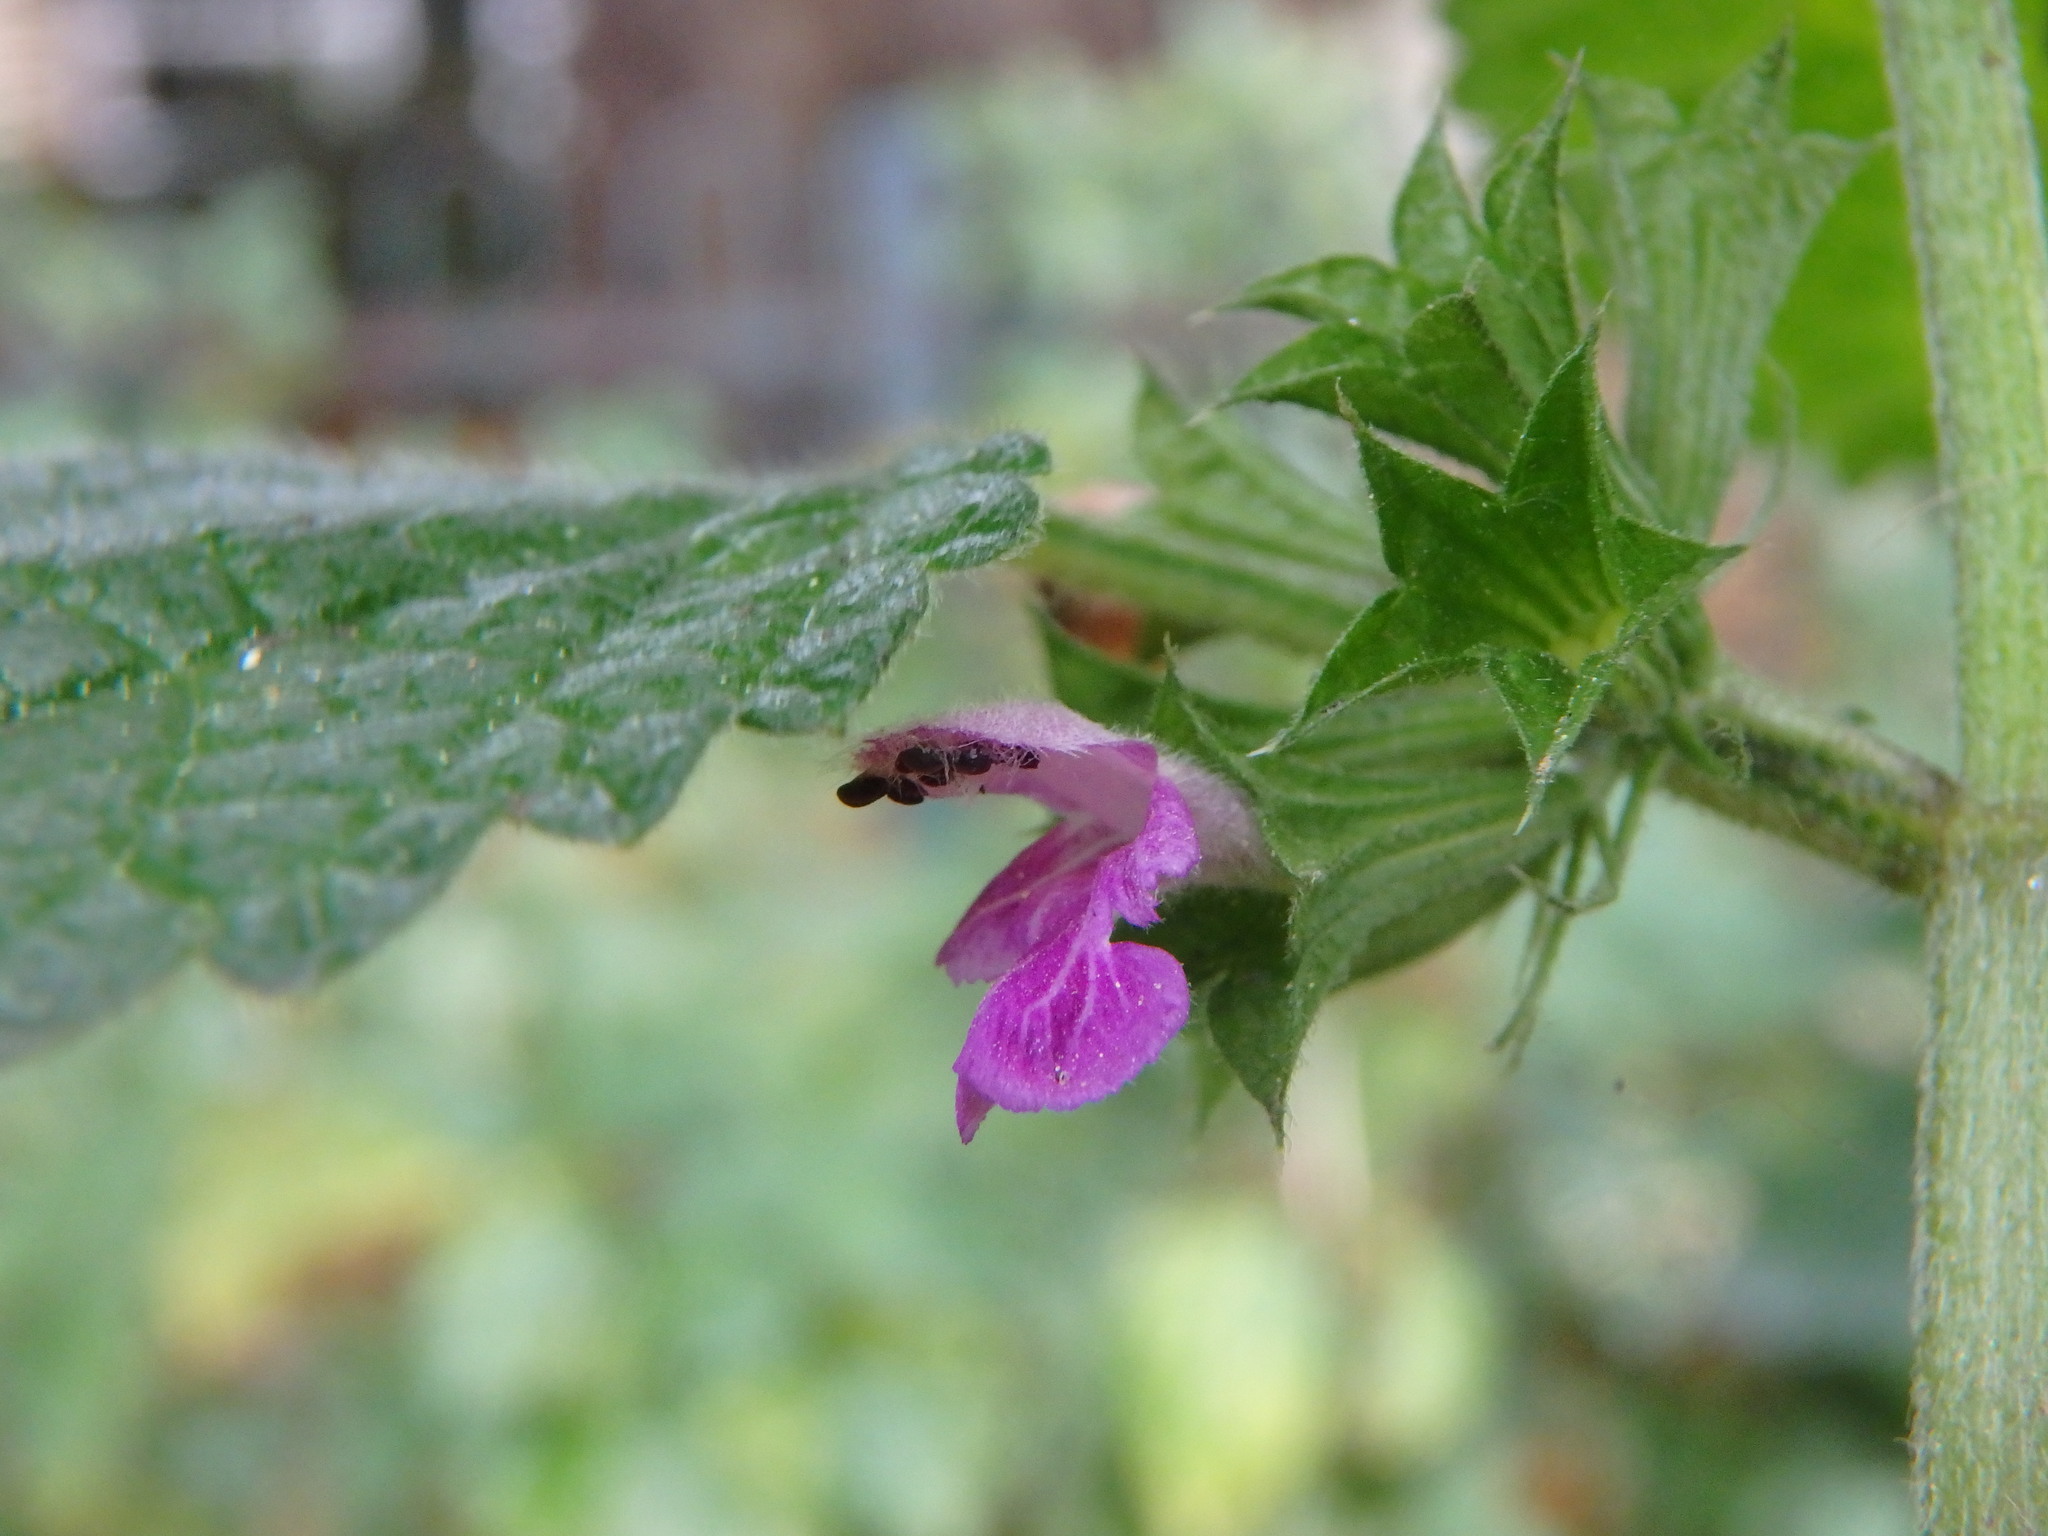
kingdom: Plantae
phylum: Tracheophyta
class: Magnoliopsida
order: Lamiales
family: Lamiaceae
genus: Ballota
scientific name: Ballota nigra
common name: Black horehound
